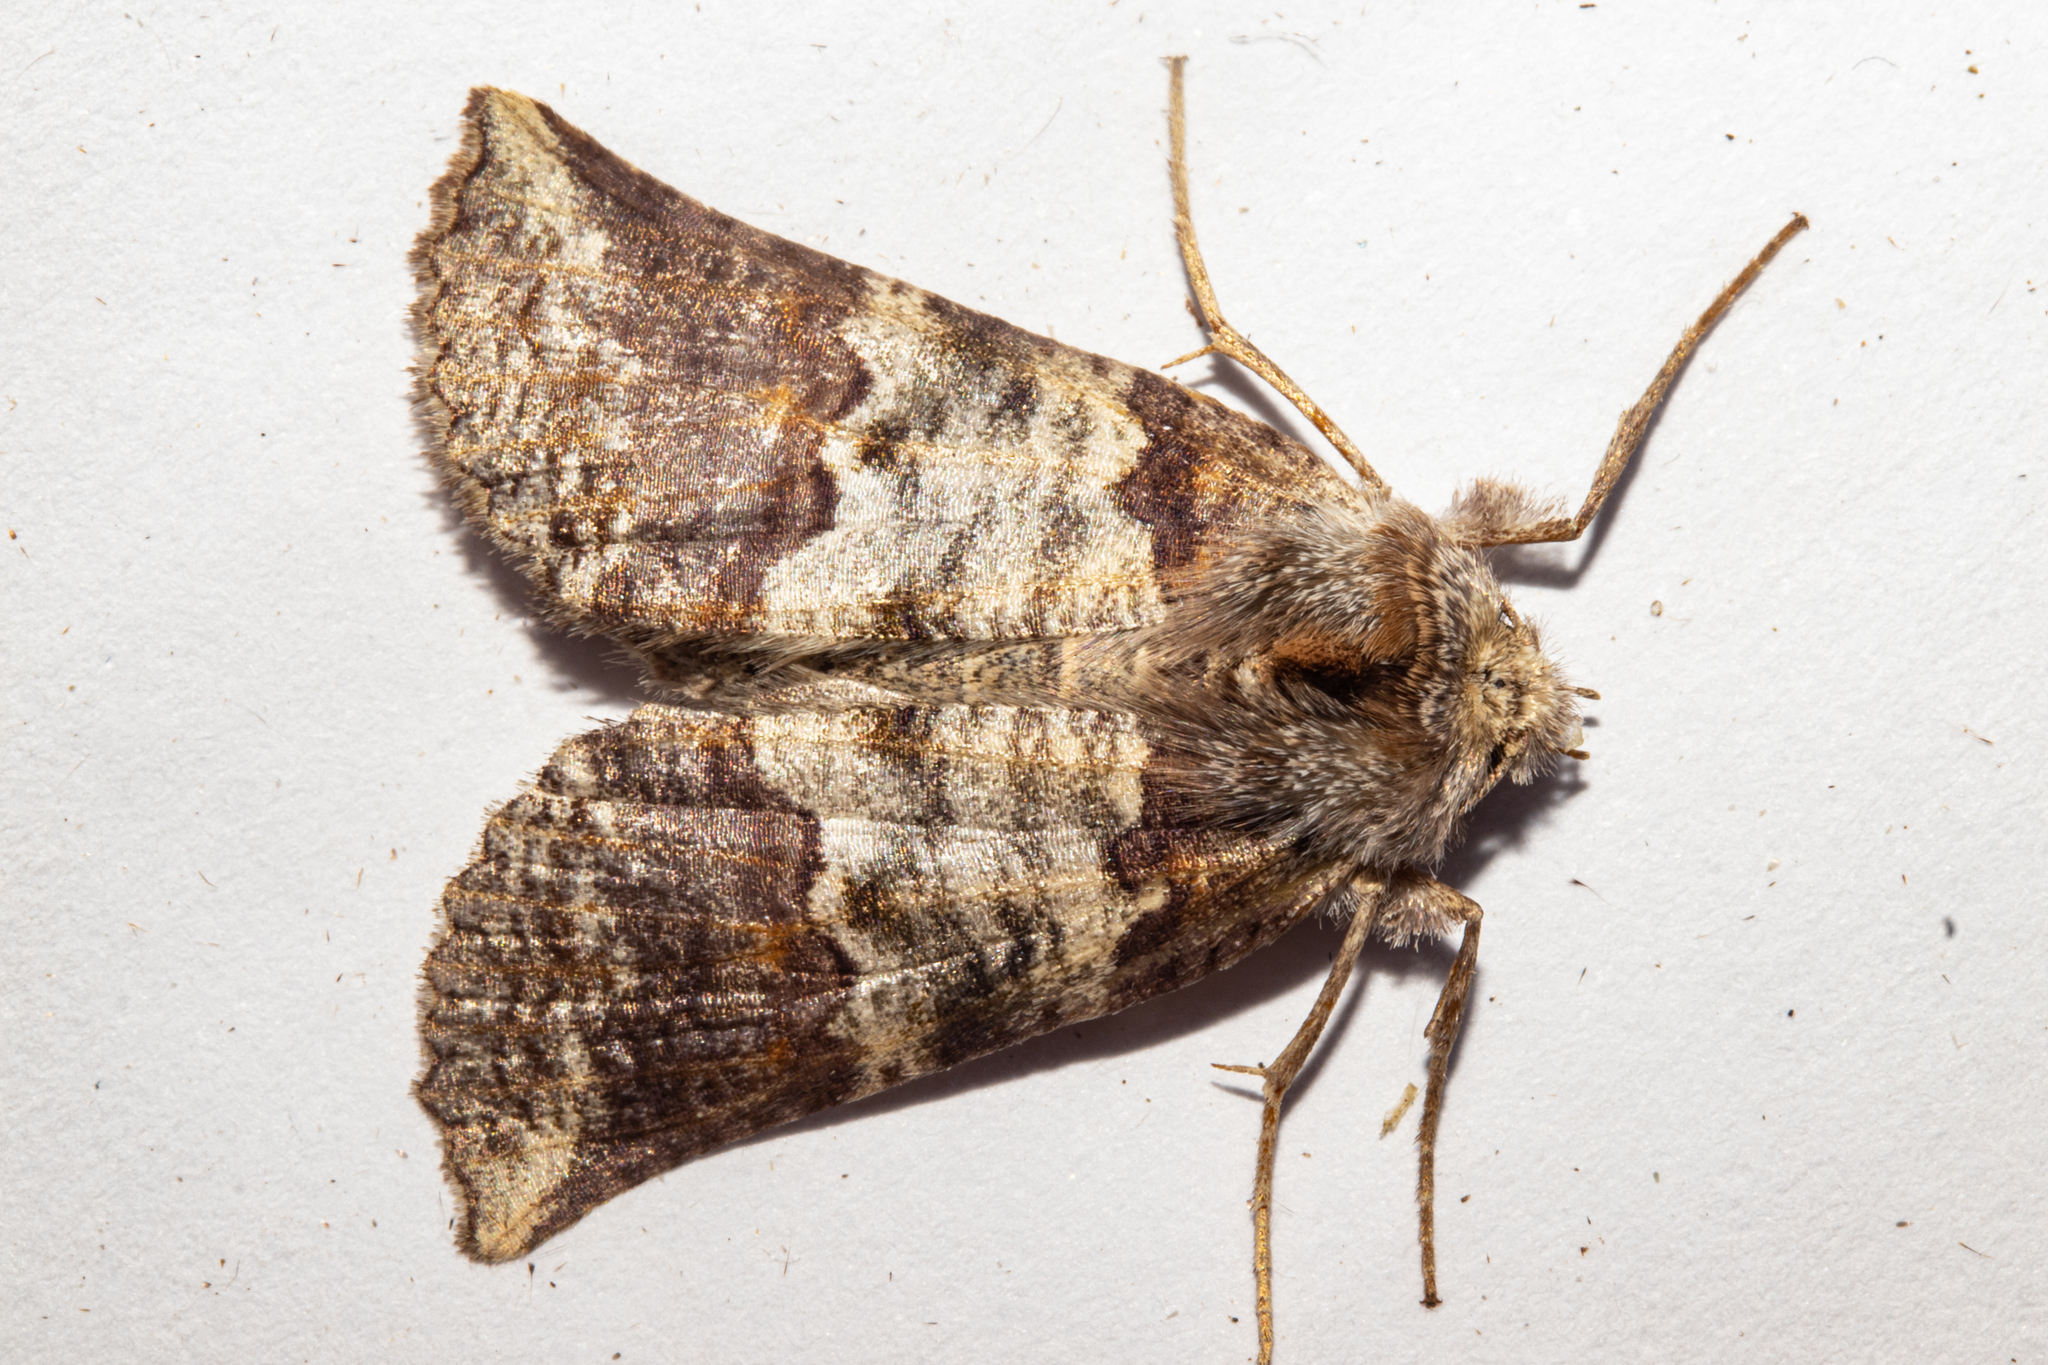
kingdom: Animalia
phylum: Arthropoda
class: Insecta
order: Lepidoptera
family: Geometridae
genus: Declana
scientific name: Declana
